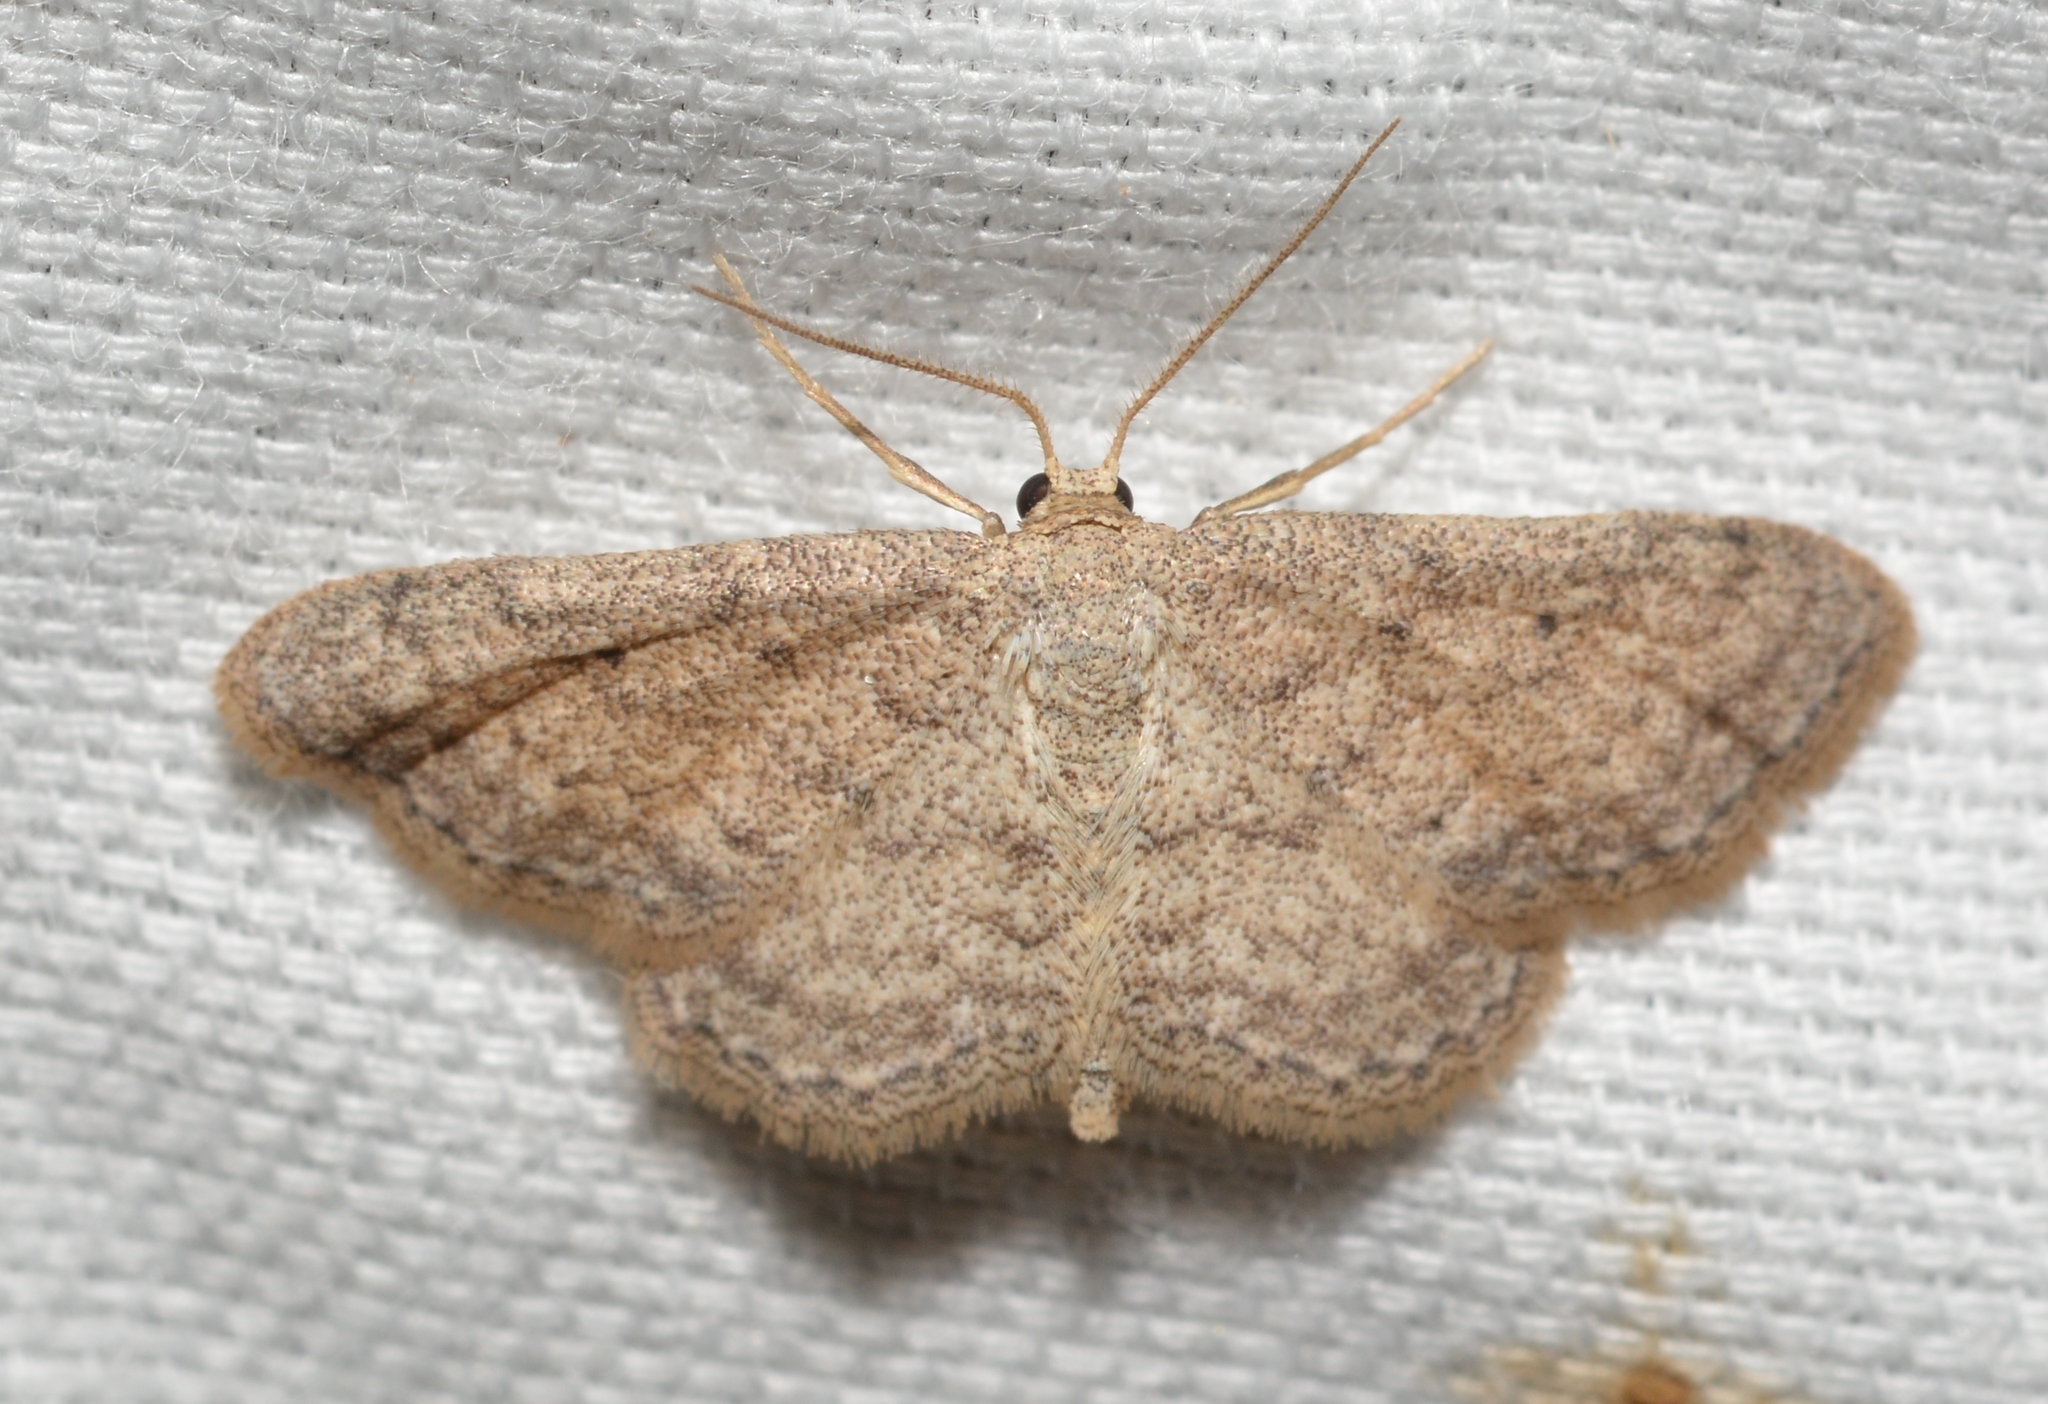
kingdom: Animalia
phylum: Arthropoda
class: Insecta
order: Lepidoptera
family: Geometridae
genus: Lobocleta
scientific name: Lobocleta ossularia
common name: Drab brown wave
